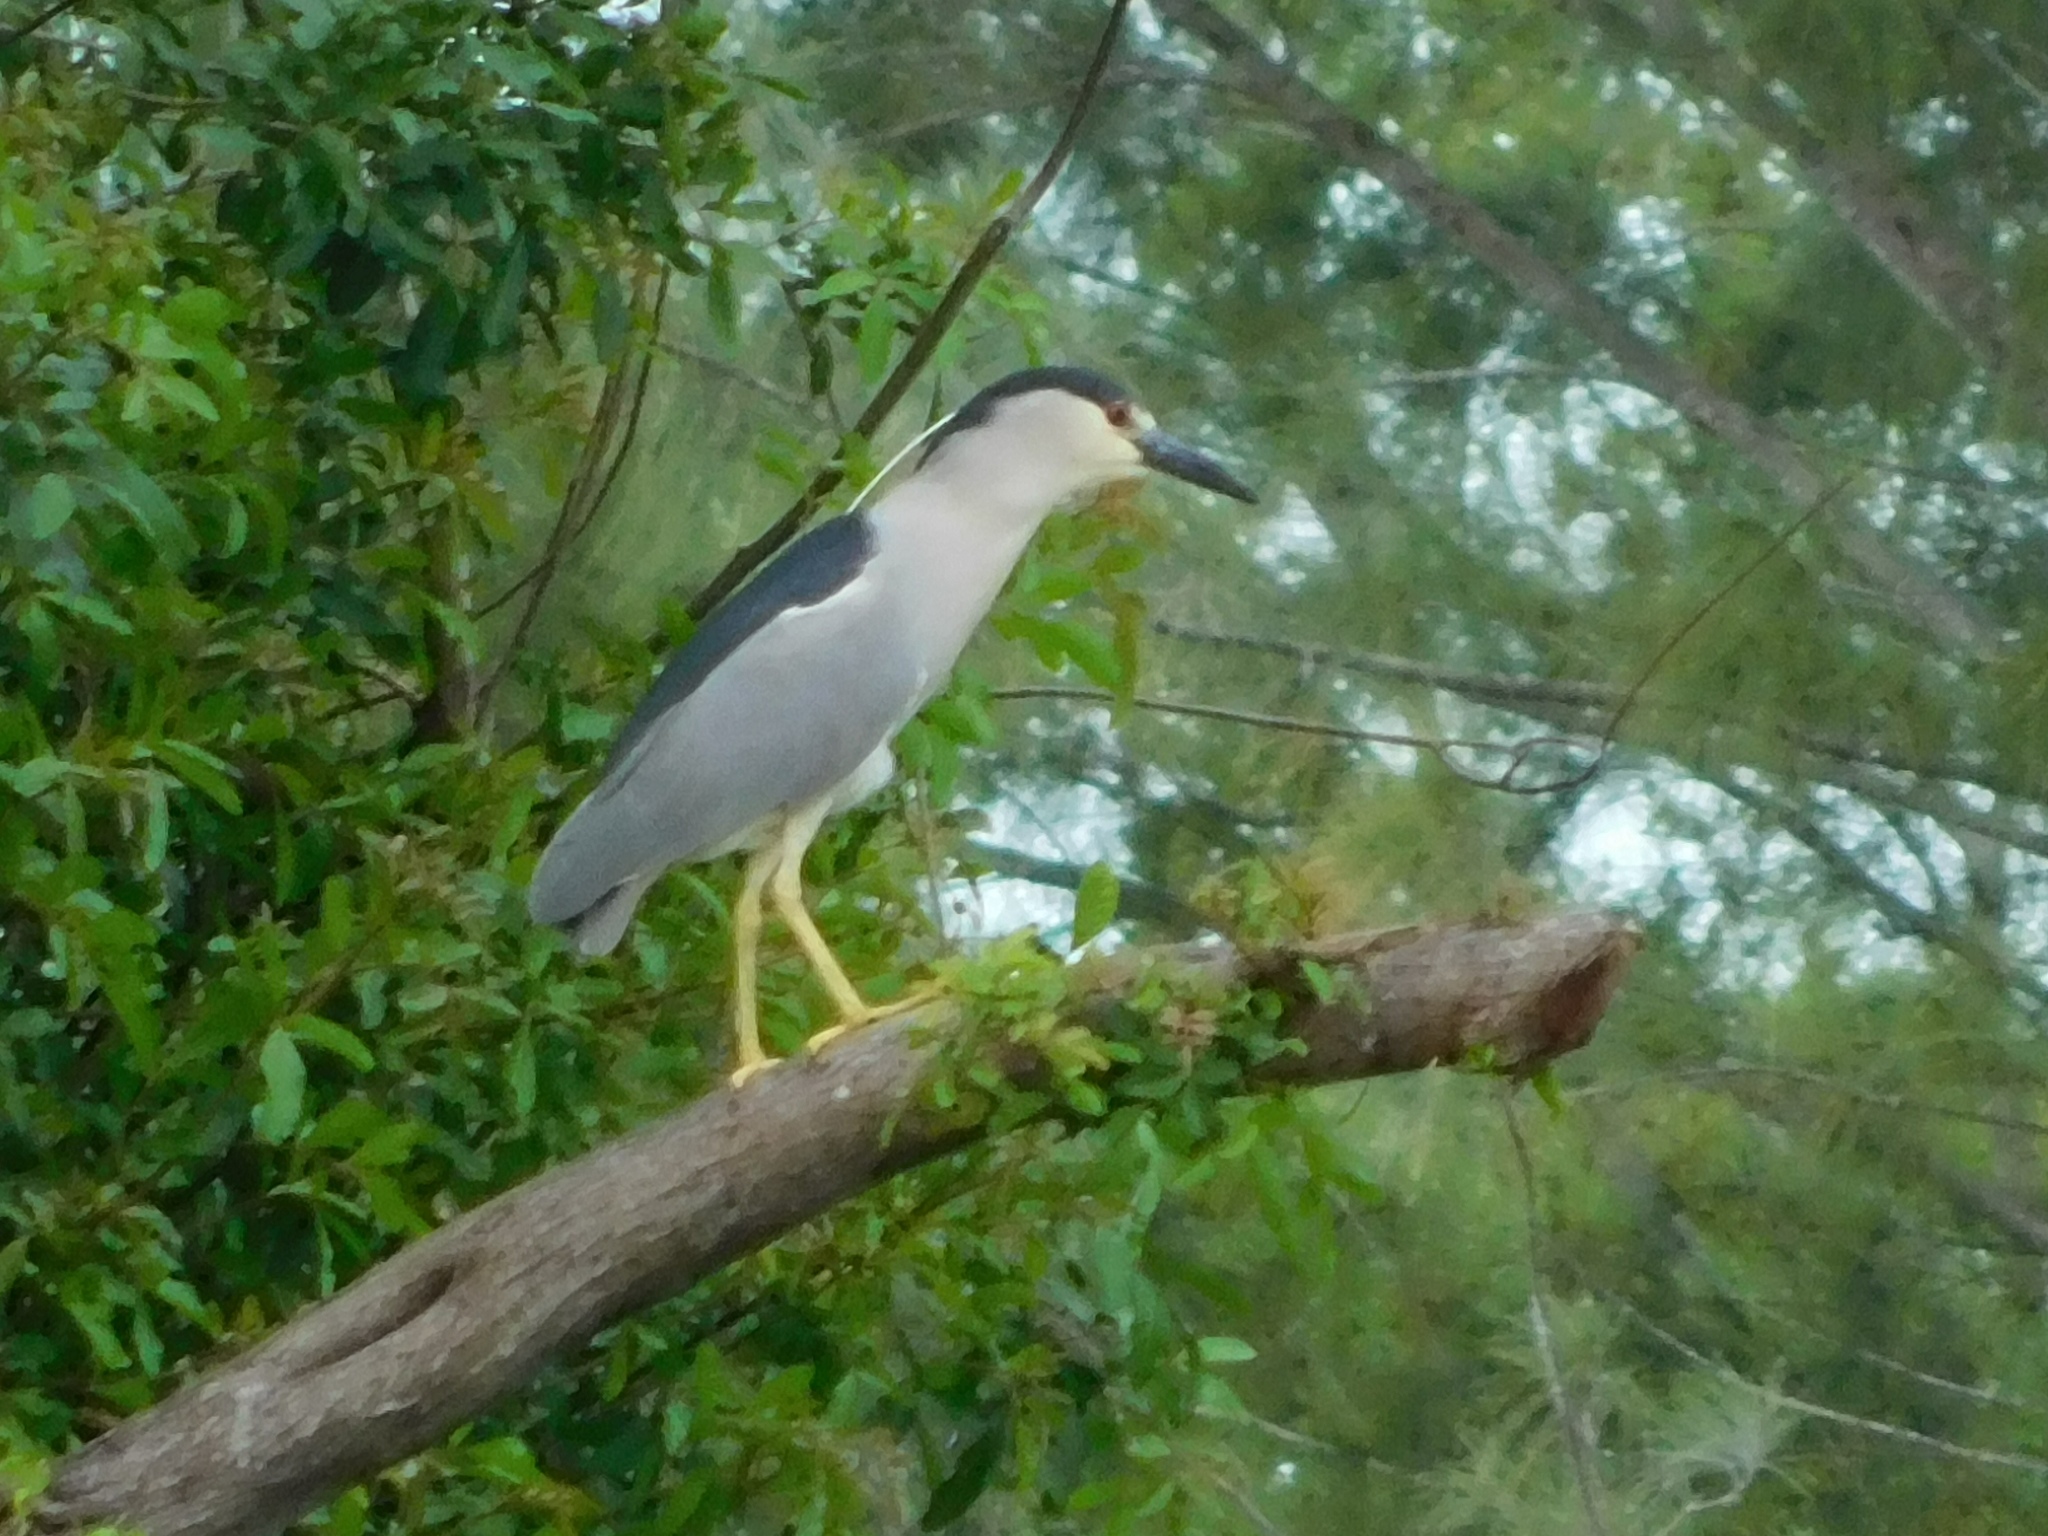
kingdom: Animalia
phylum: Chordata
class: Aves
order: Pelecaniformes
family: Ardeidae
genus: Nycticorax
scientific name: Nycticorax nycticorax
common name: Black-crowned night heron
